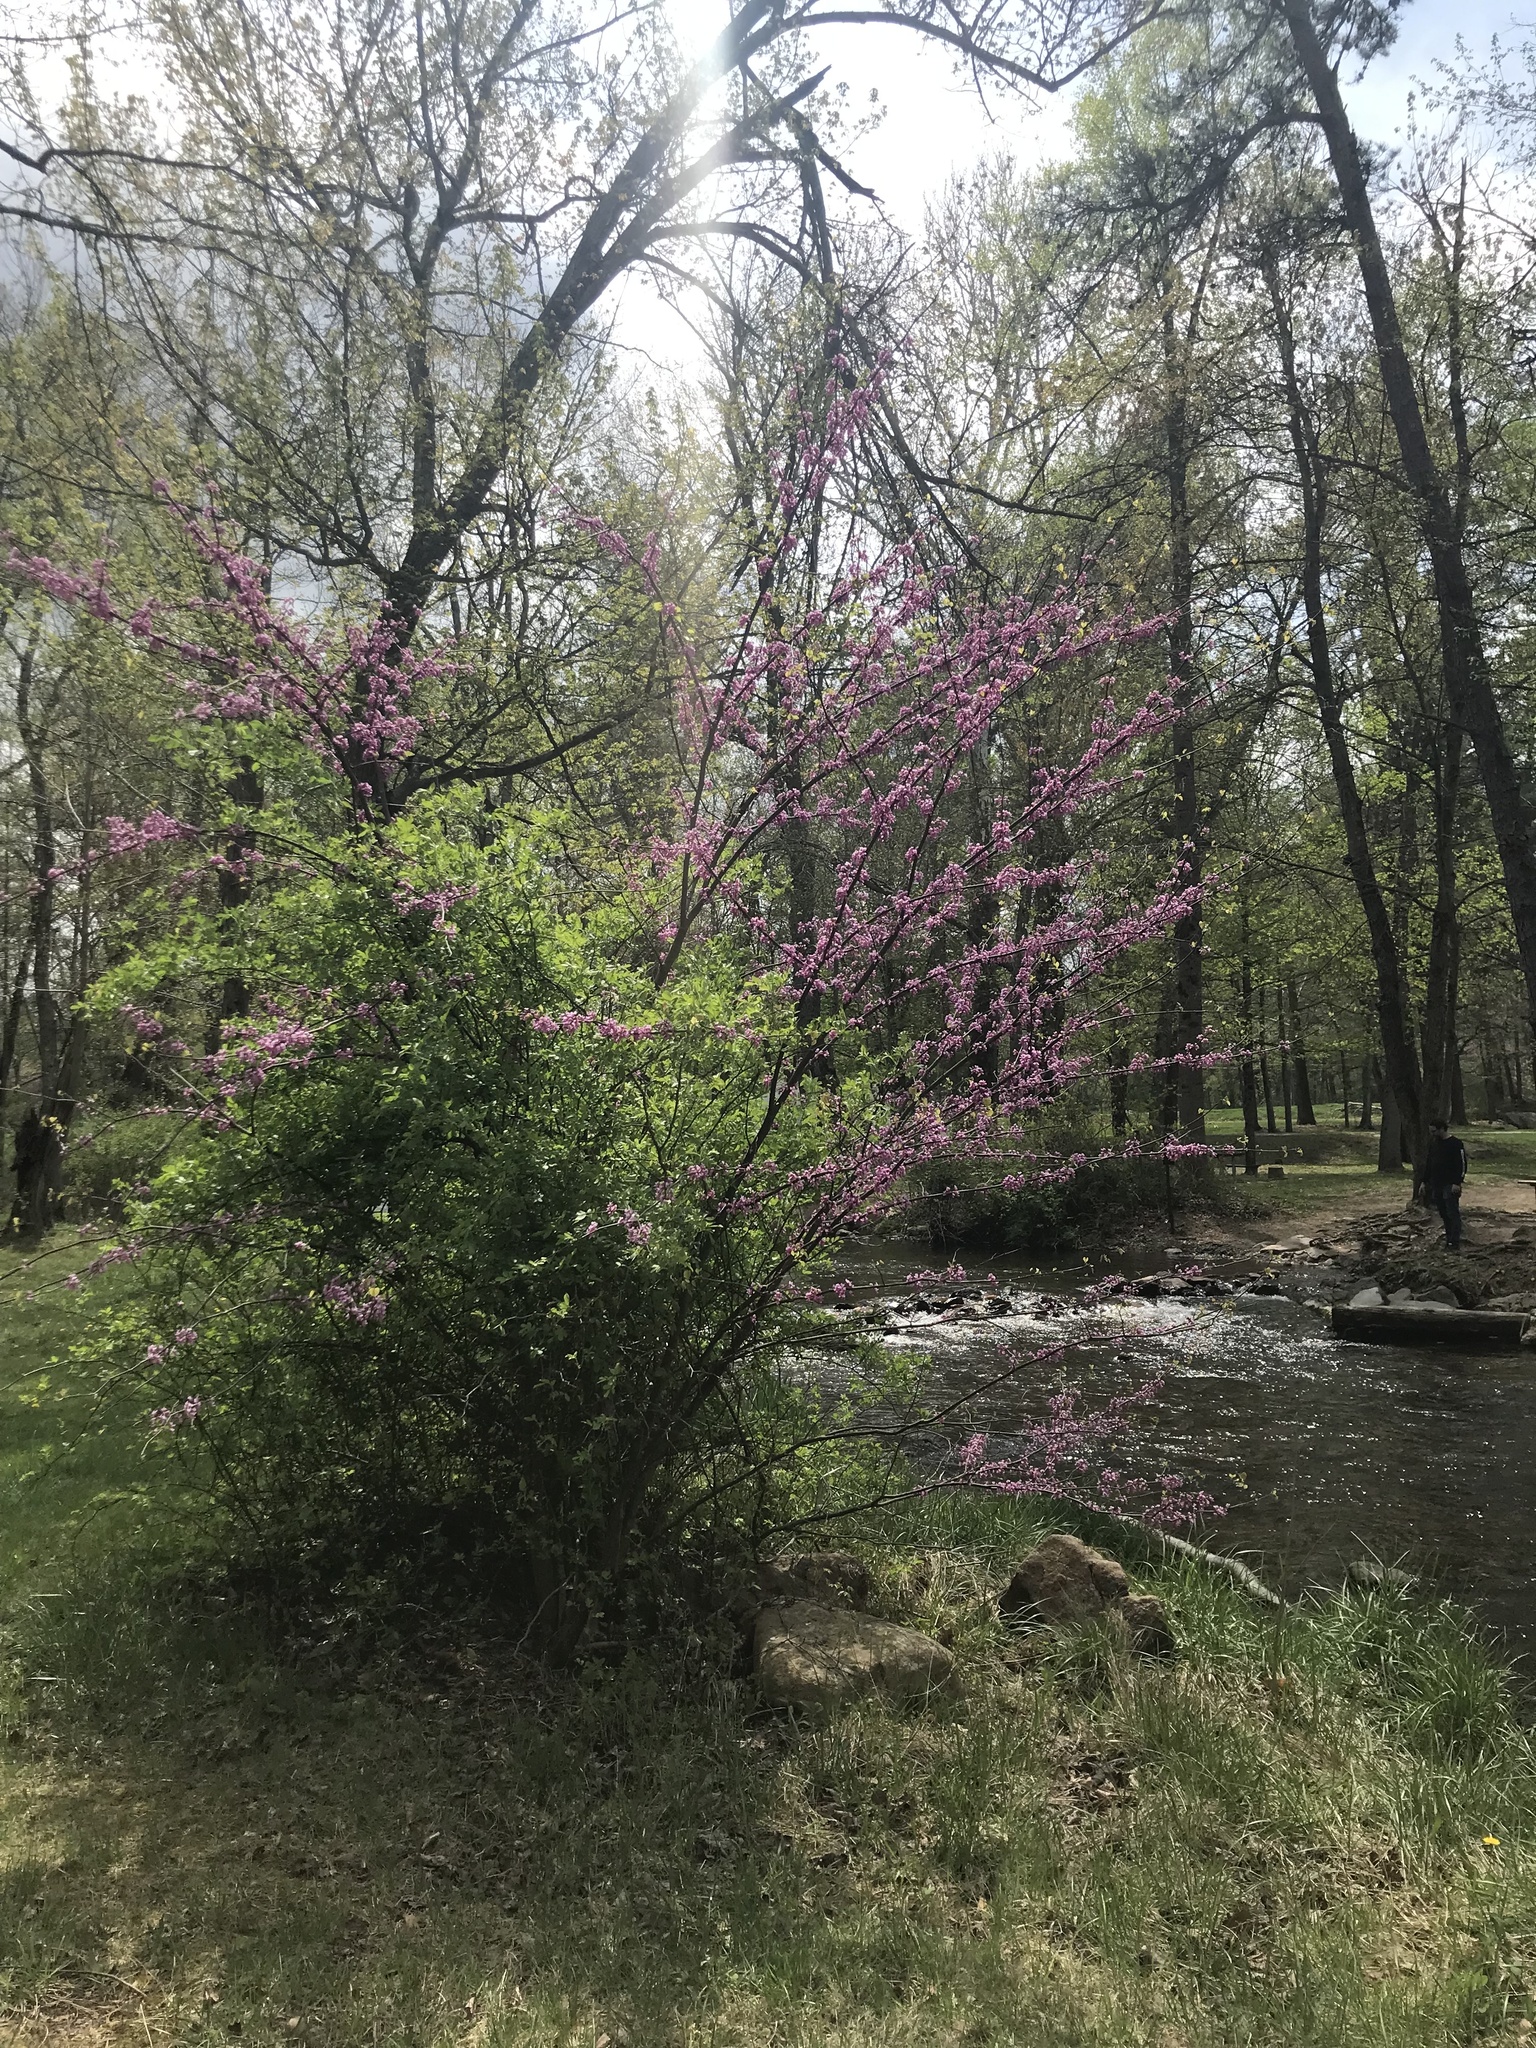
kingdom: Plantae
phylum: Tracheophyta
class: Magnoliopsida
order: Fabales
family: Fabaceae
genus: Cercis
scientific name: Cercis canadensis
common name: Eastern redbud
